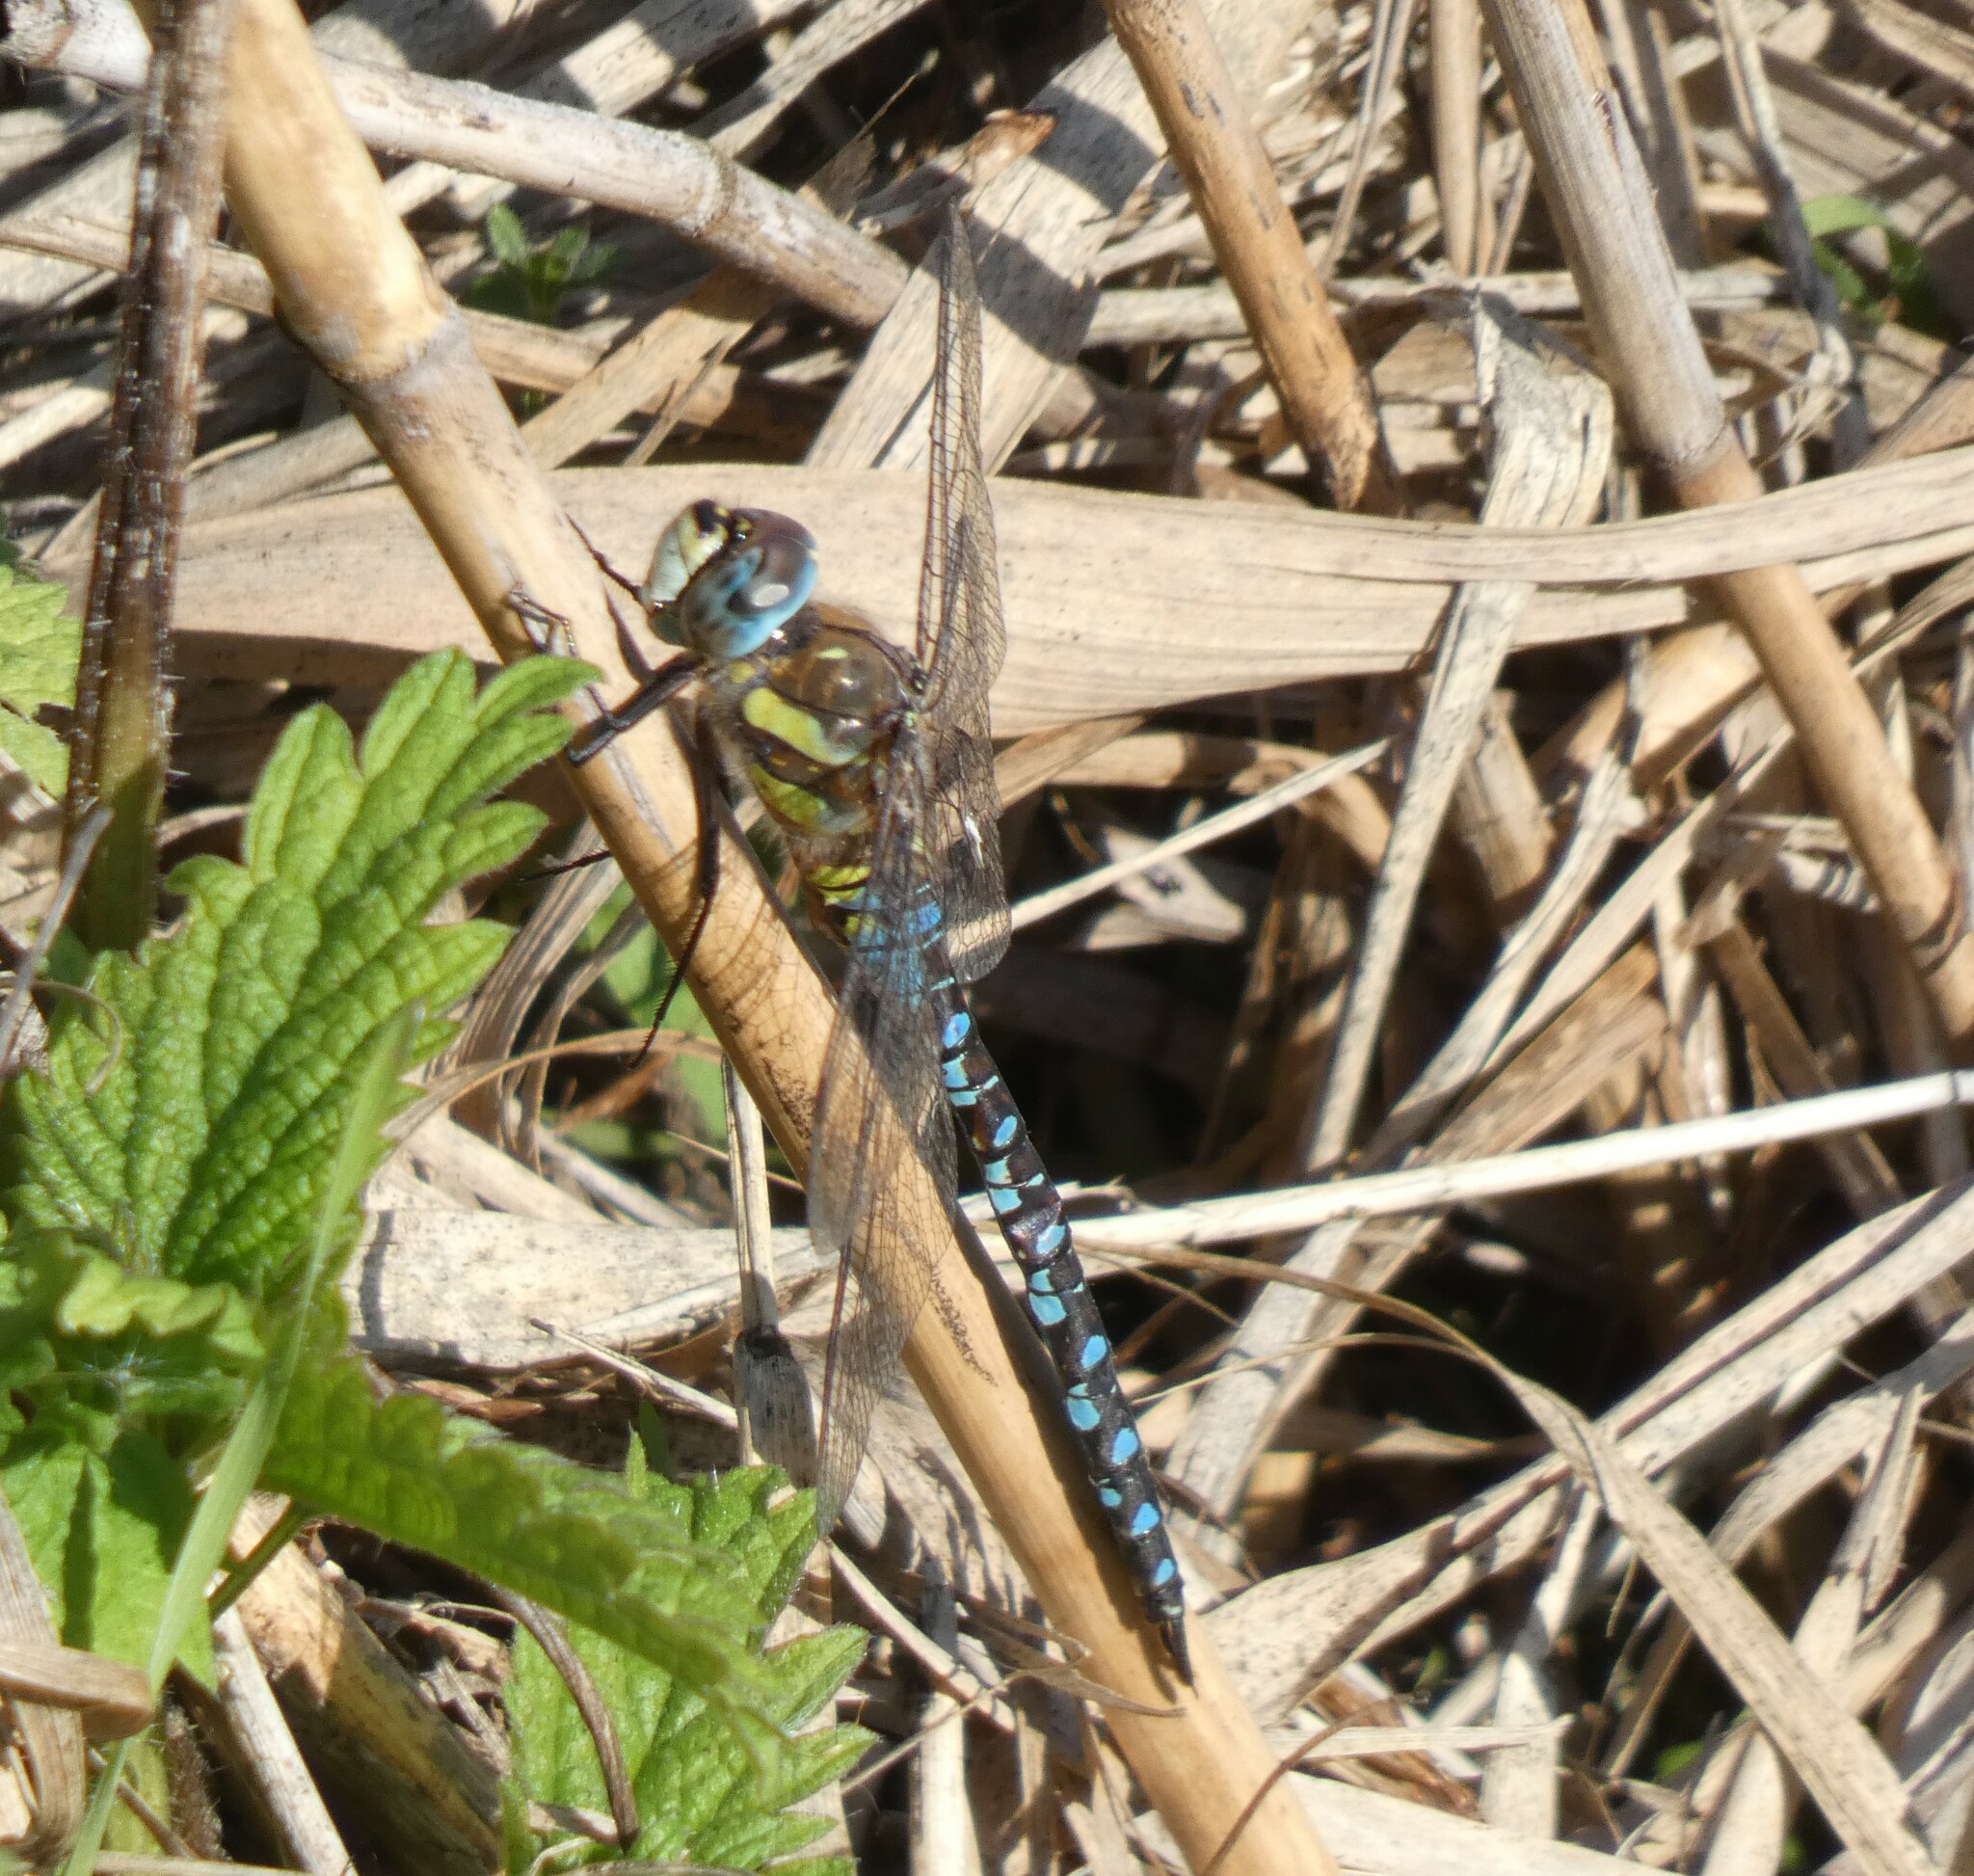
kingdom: Animalia
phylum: Arthropoda
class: Insecta
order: Odonata
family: Aeshnidae
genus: Aeshna
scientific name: Aeshna mixta
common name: Migrant hawker
